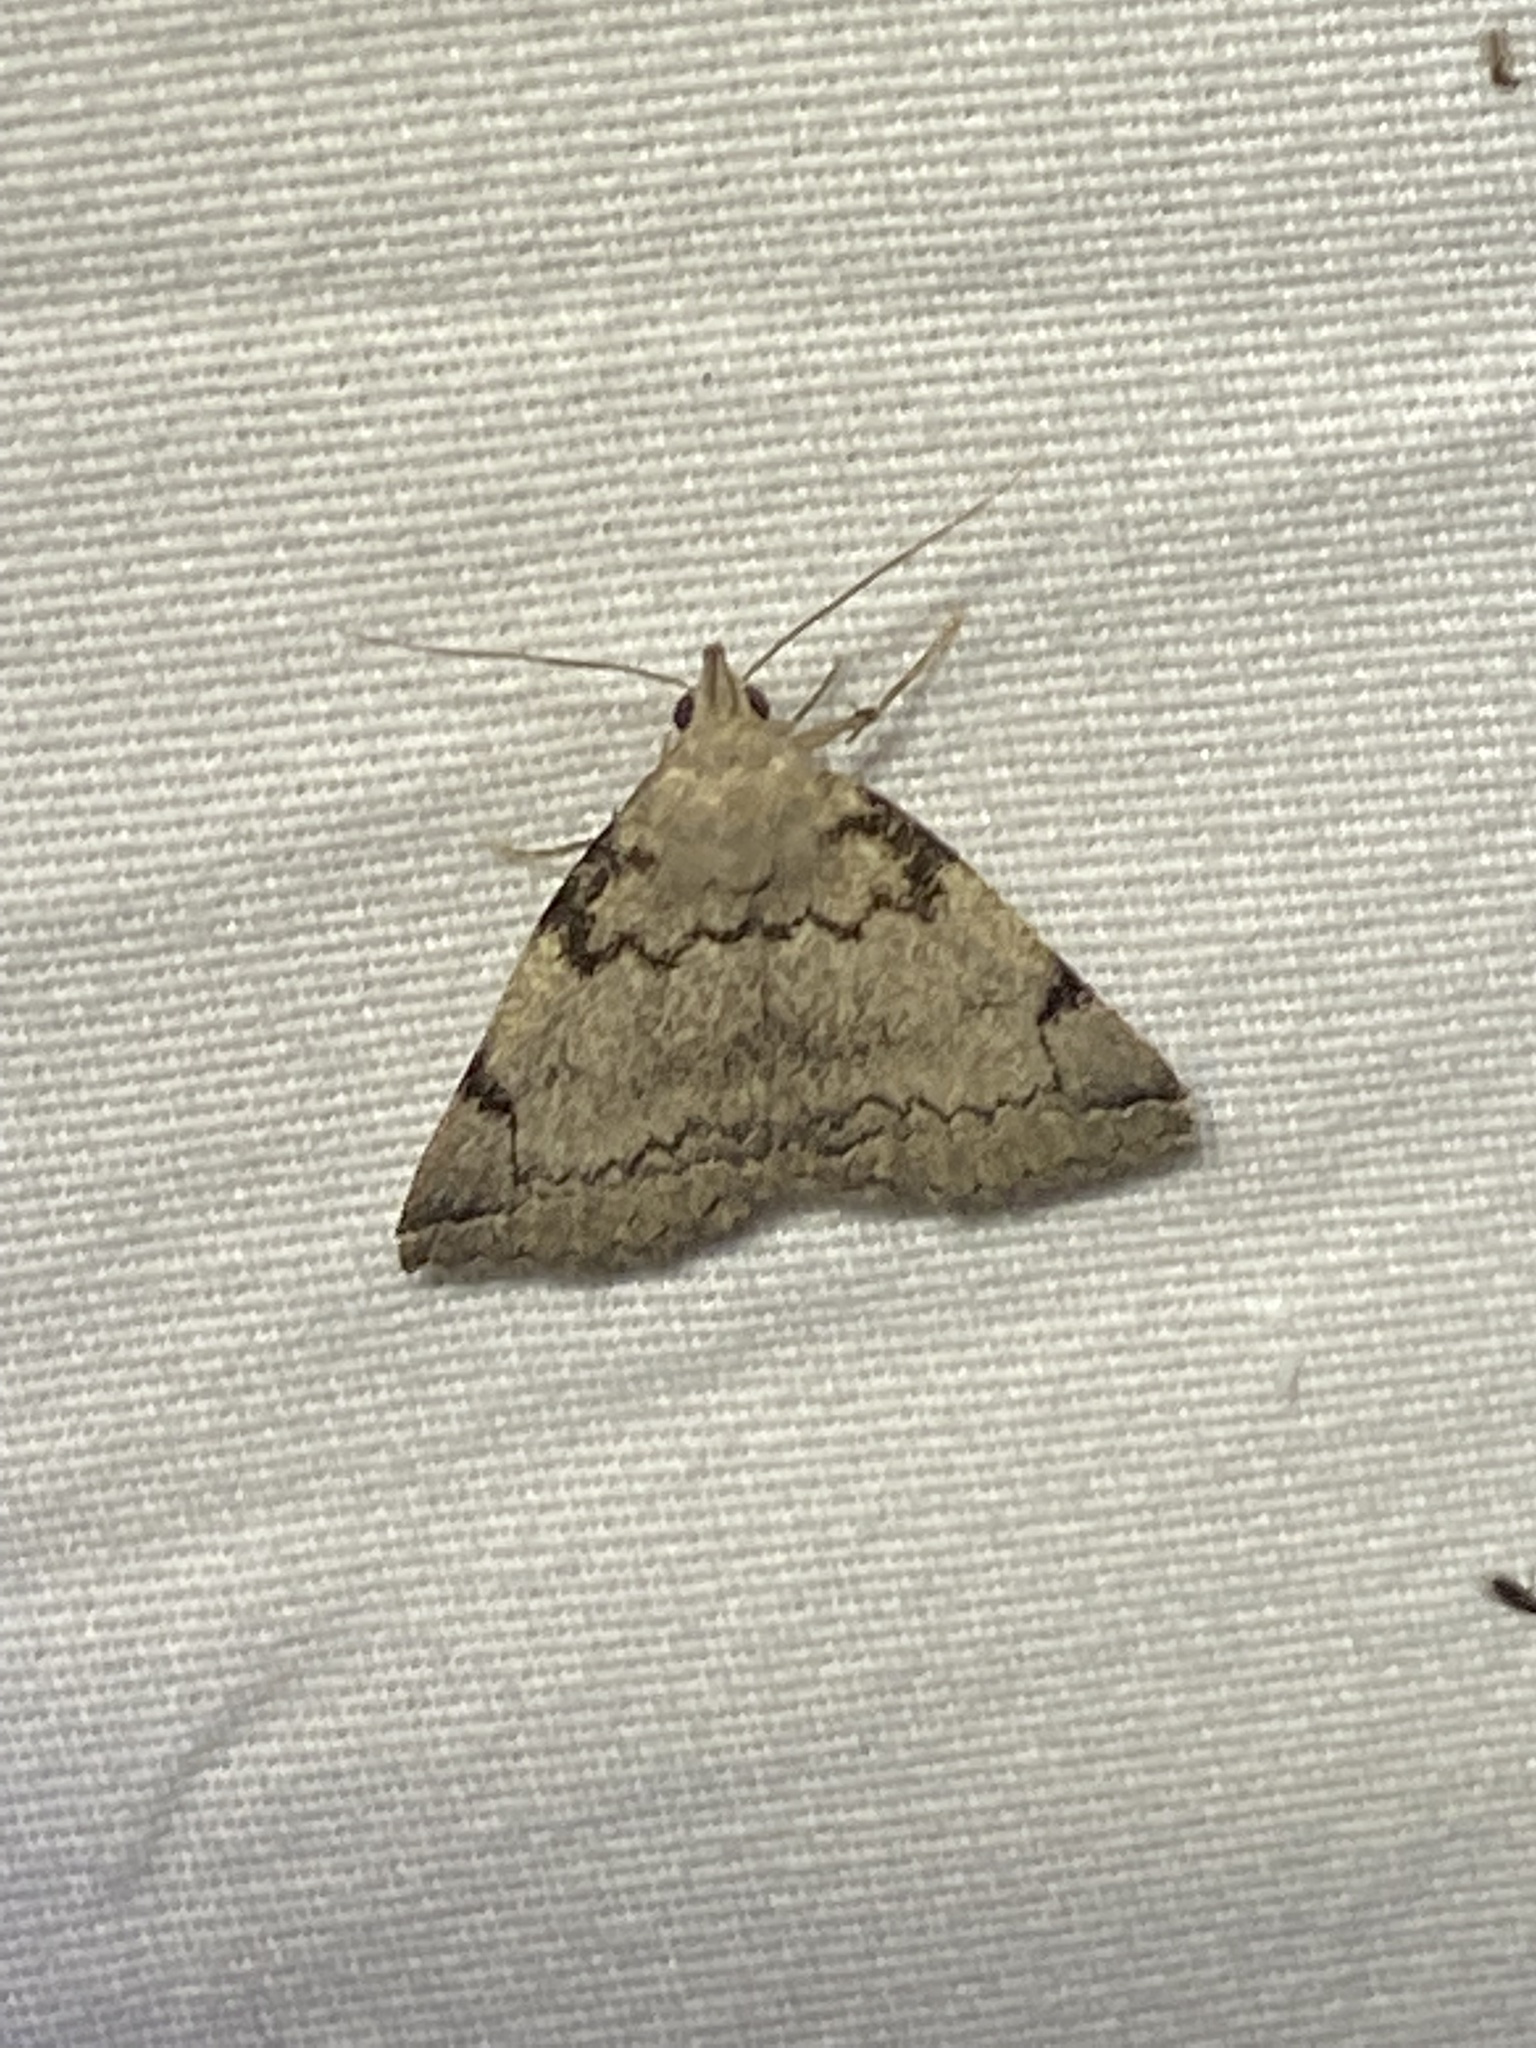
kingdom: Animalia
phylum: Arthropoda
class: Insecta
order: Lepidoptera
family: Erebidae
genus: Zanclognatha
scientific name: Zanclognatha theralis
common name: Flagged fan-foot
